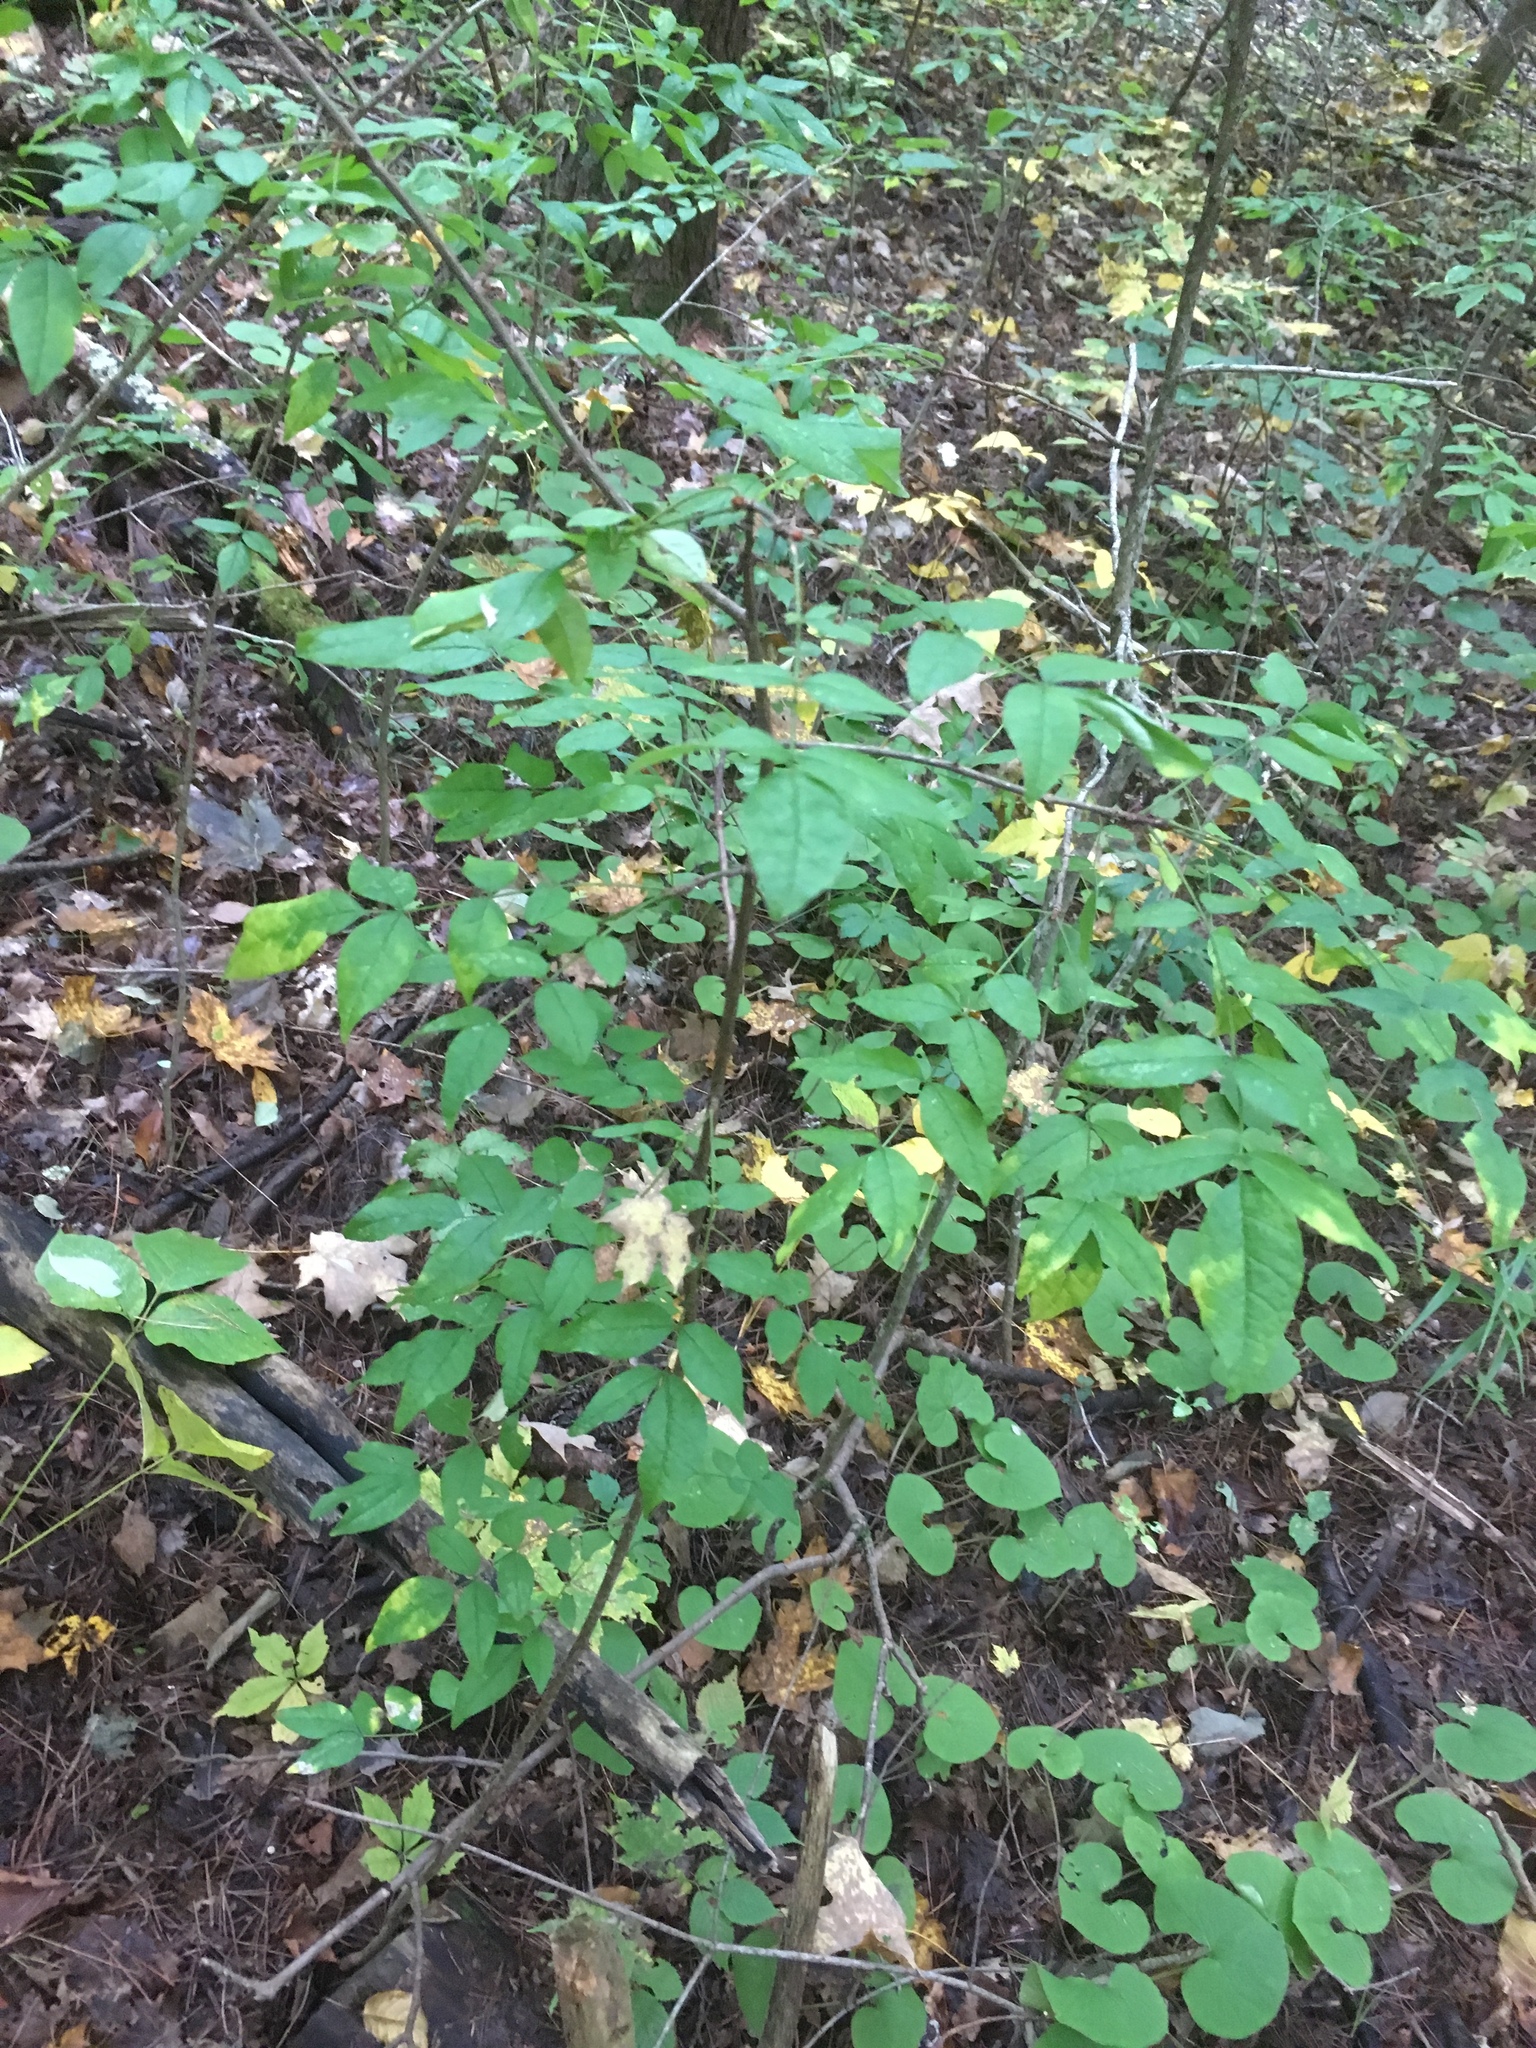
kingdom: Plantae
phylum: Tracheophyta
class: Magnoliopsida
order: Sapindales
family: Rutaceae
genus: Zanthoxylum
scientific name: Zanthoxylum americanum
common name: Northern prickly-ash
